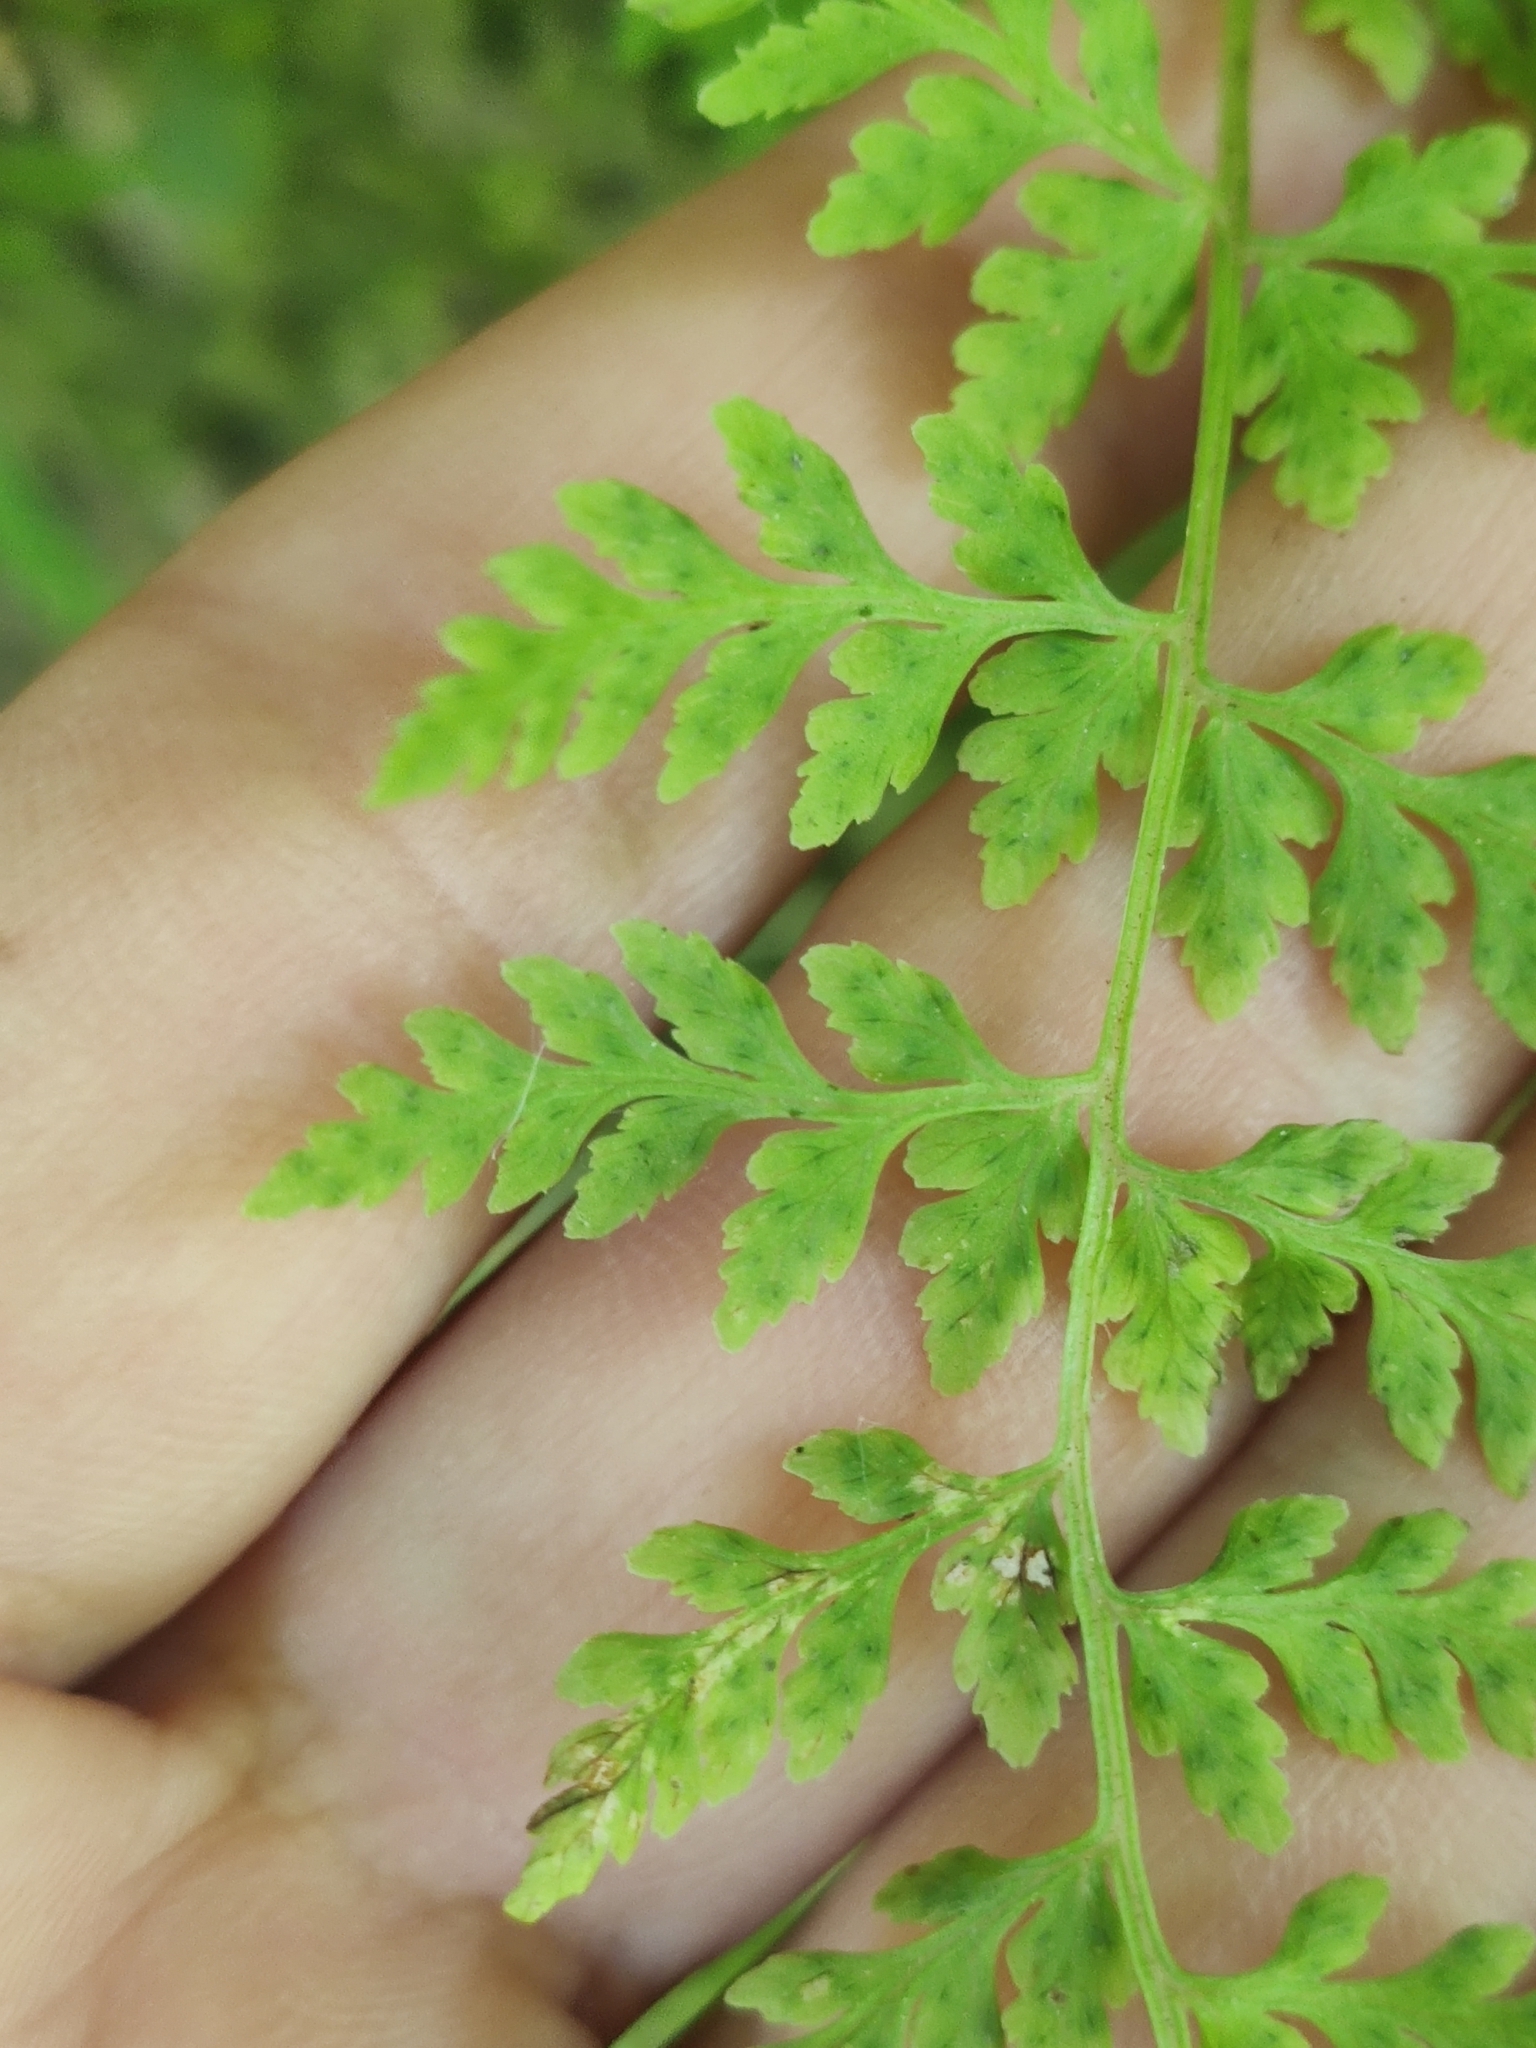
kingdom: Plantae
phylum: Tracheophyta
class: Polypodiopsida
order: Polypodiales
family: Cystopteridaceae
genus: Cystopteris
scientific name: Cystopteris fragilis
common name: Brittle bladder fern
